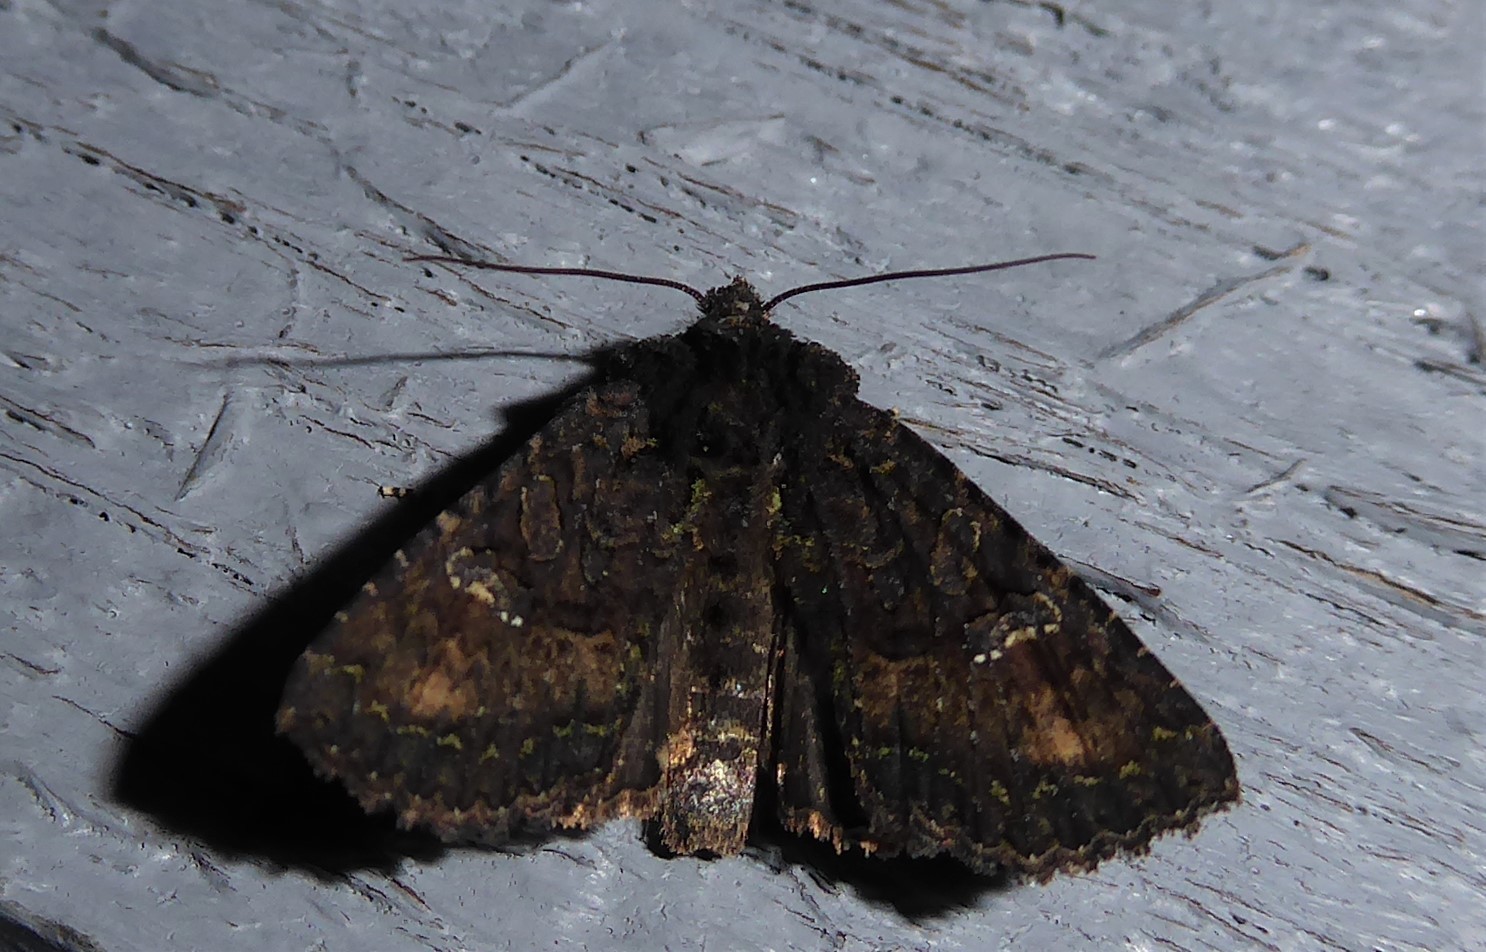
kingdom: Animalia
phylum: Arthropoda
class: Insecta
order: Lepidoptera
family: Noctuidae
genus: Meterana
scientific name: Meterana ochthistis
